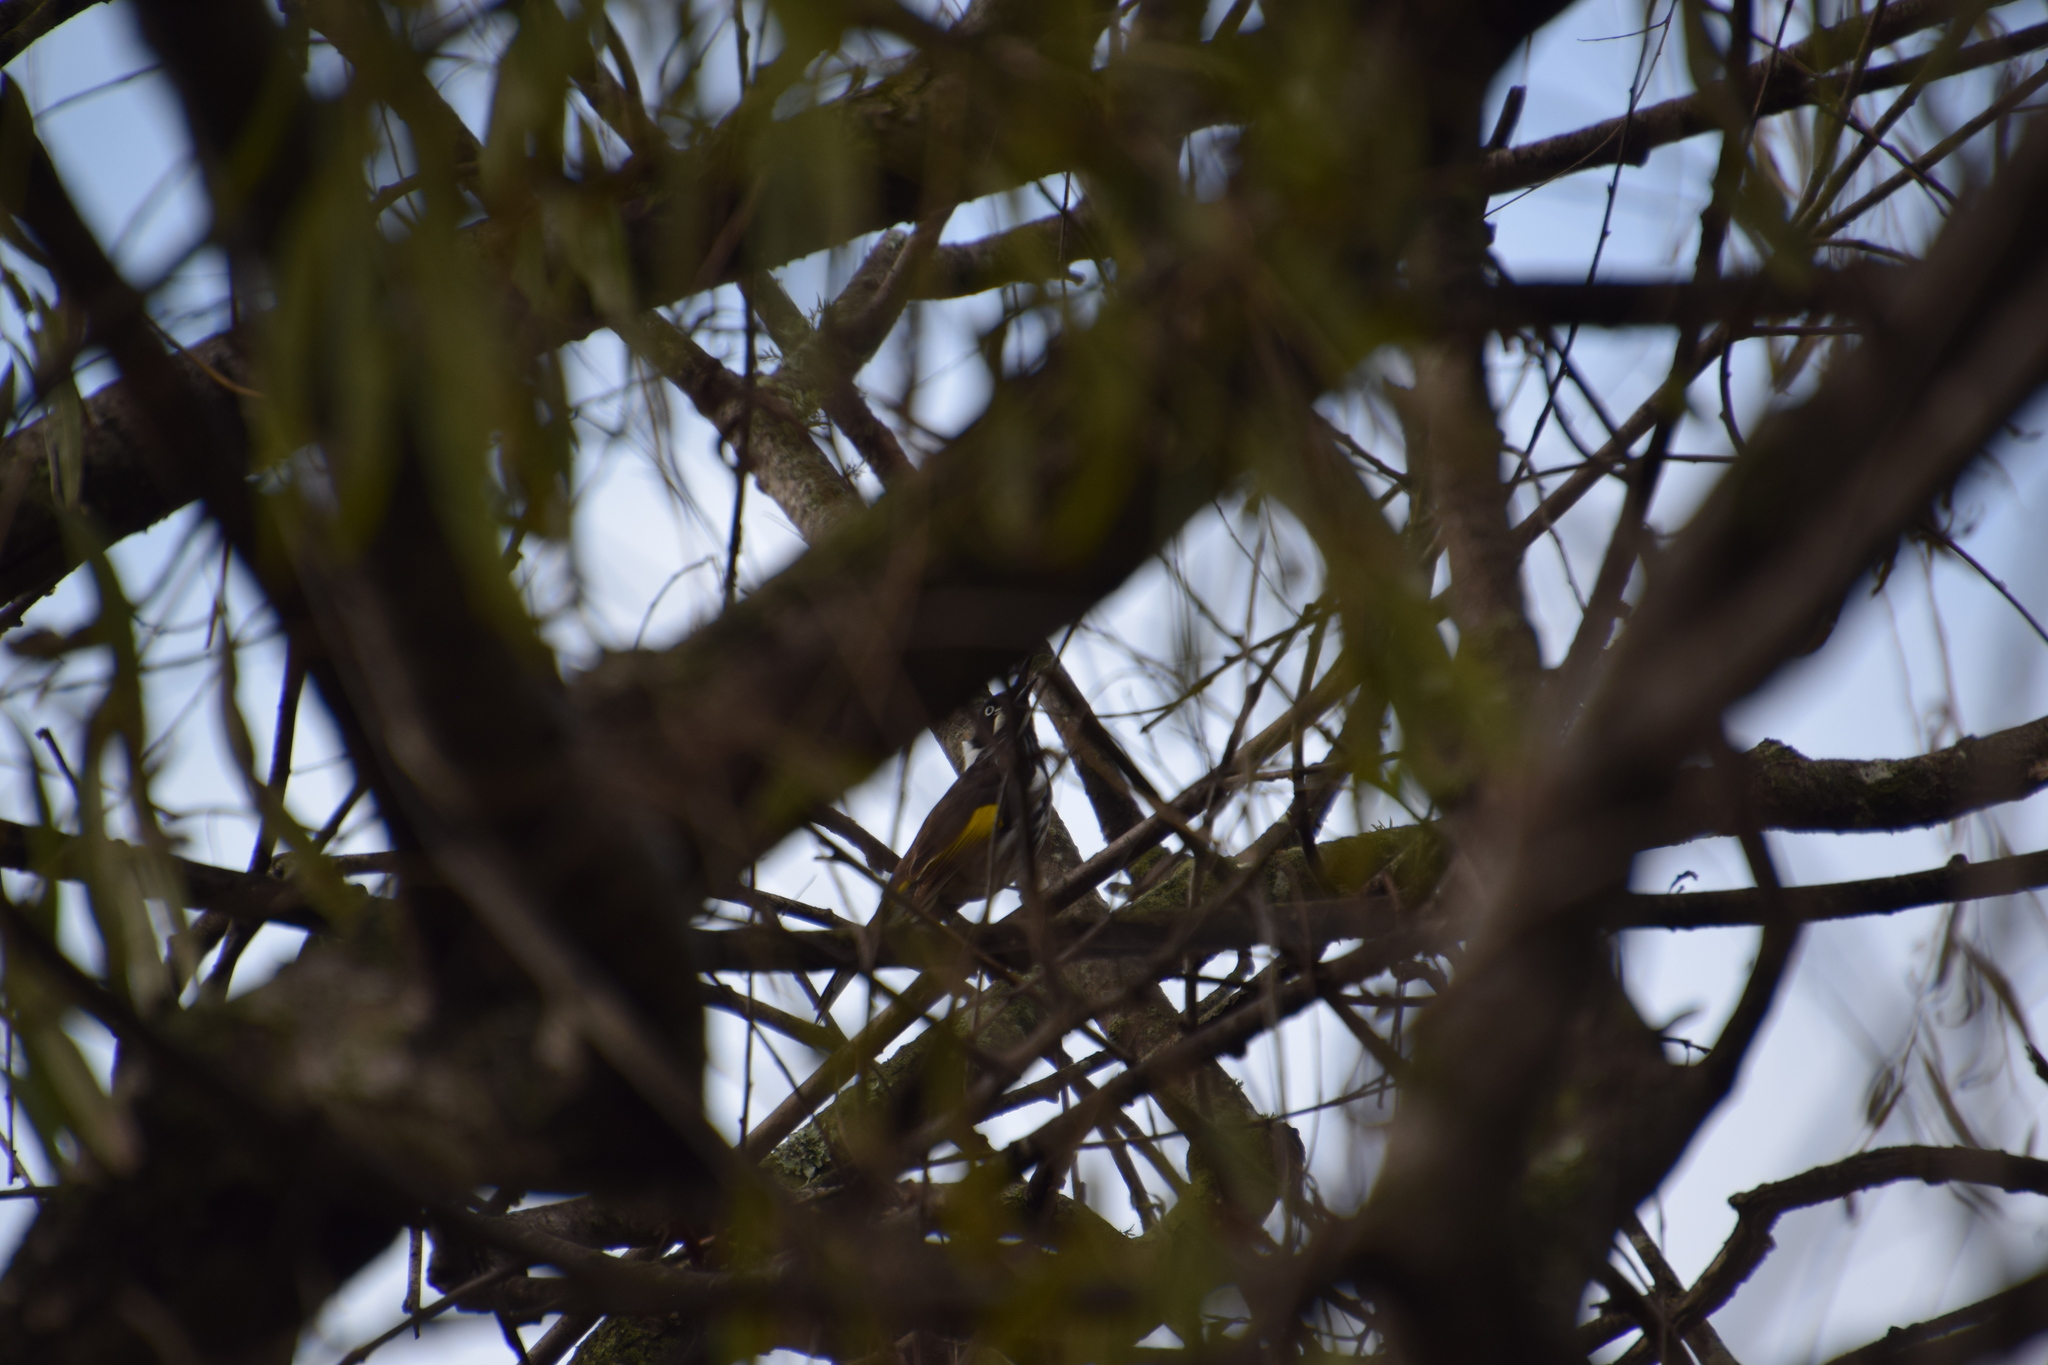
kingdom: Animalia
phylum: Chordata
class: Aves
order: Passeriformes
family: Meliphagidae
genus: Phylidonyris
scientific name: Phylidonyris novaehollandiae
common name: New holland honeyeater
